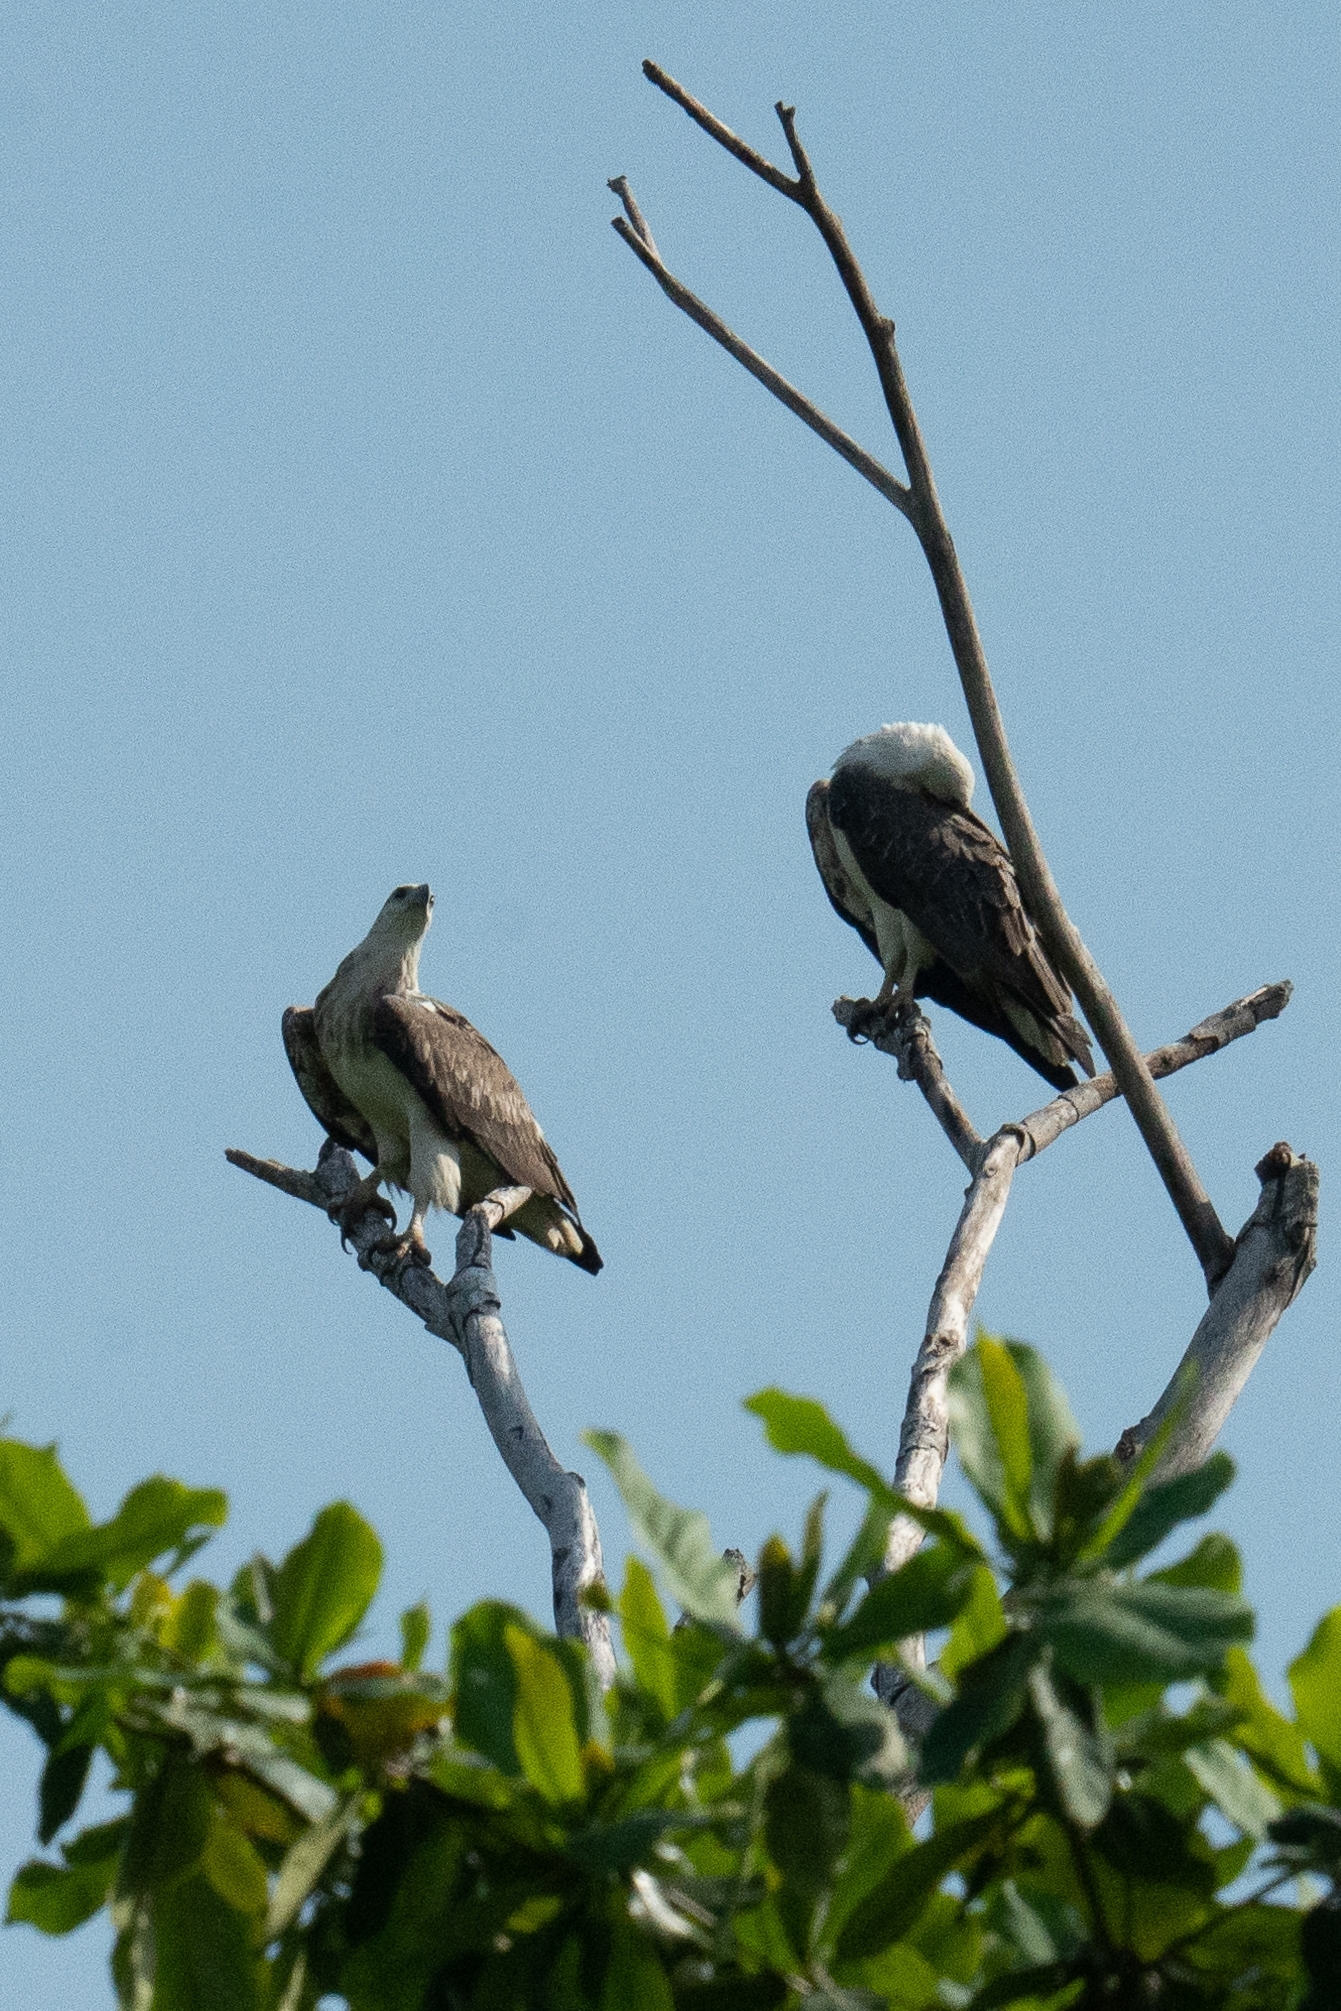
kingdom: Animalia
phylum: Chordata
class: Aves
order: Accipitriformes
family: Accipitridae
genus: Haliaeetus
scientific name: Haliaeetus leucogaster
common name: White-bellied sea eagle
